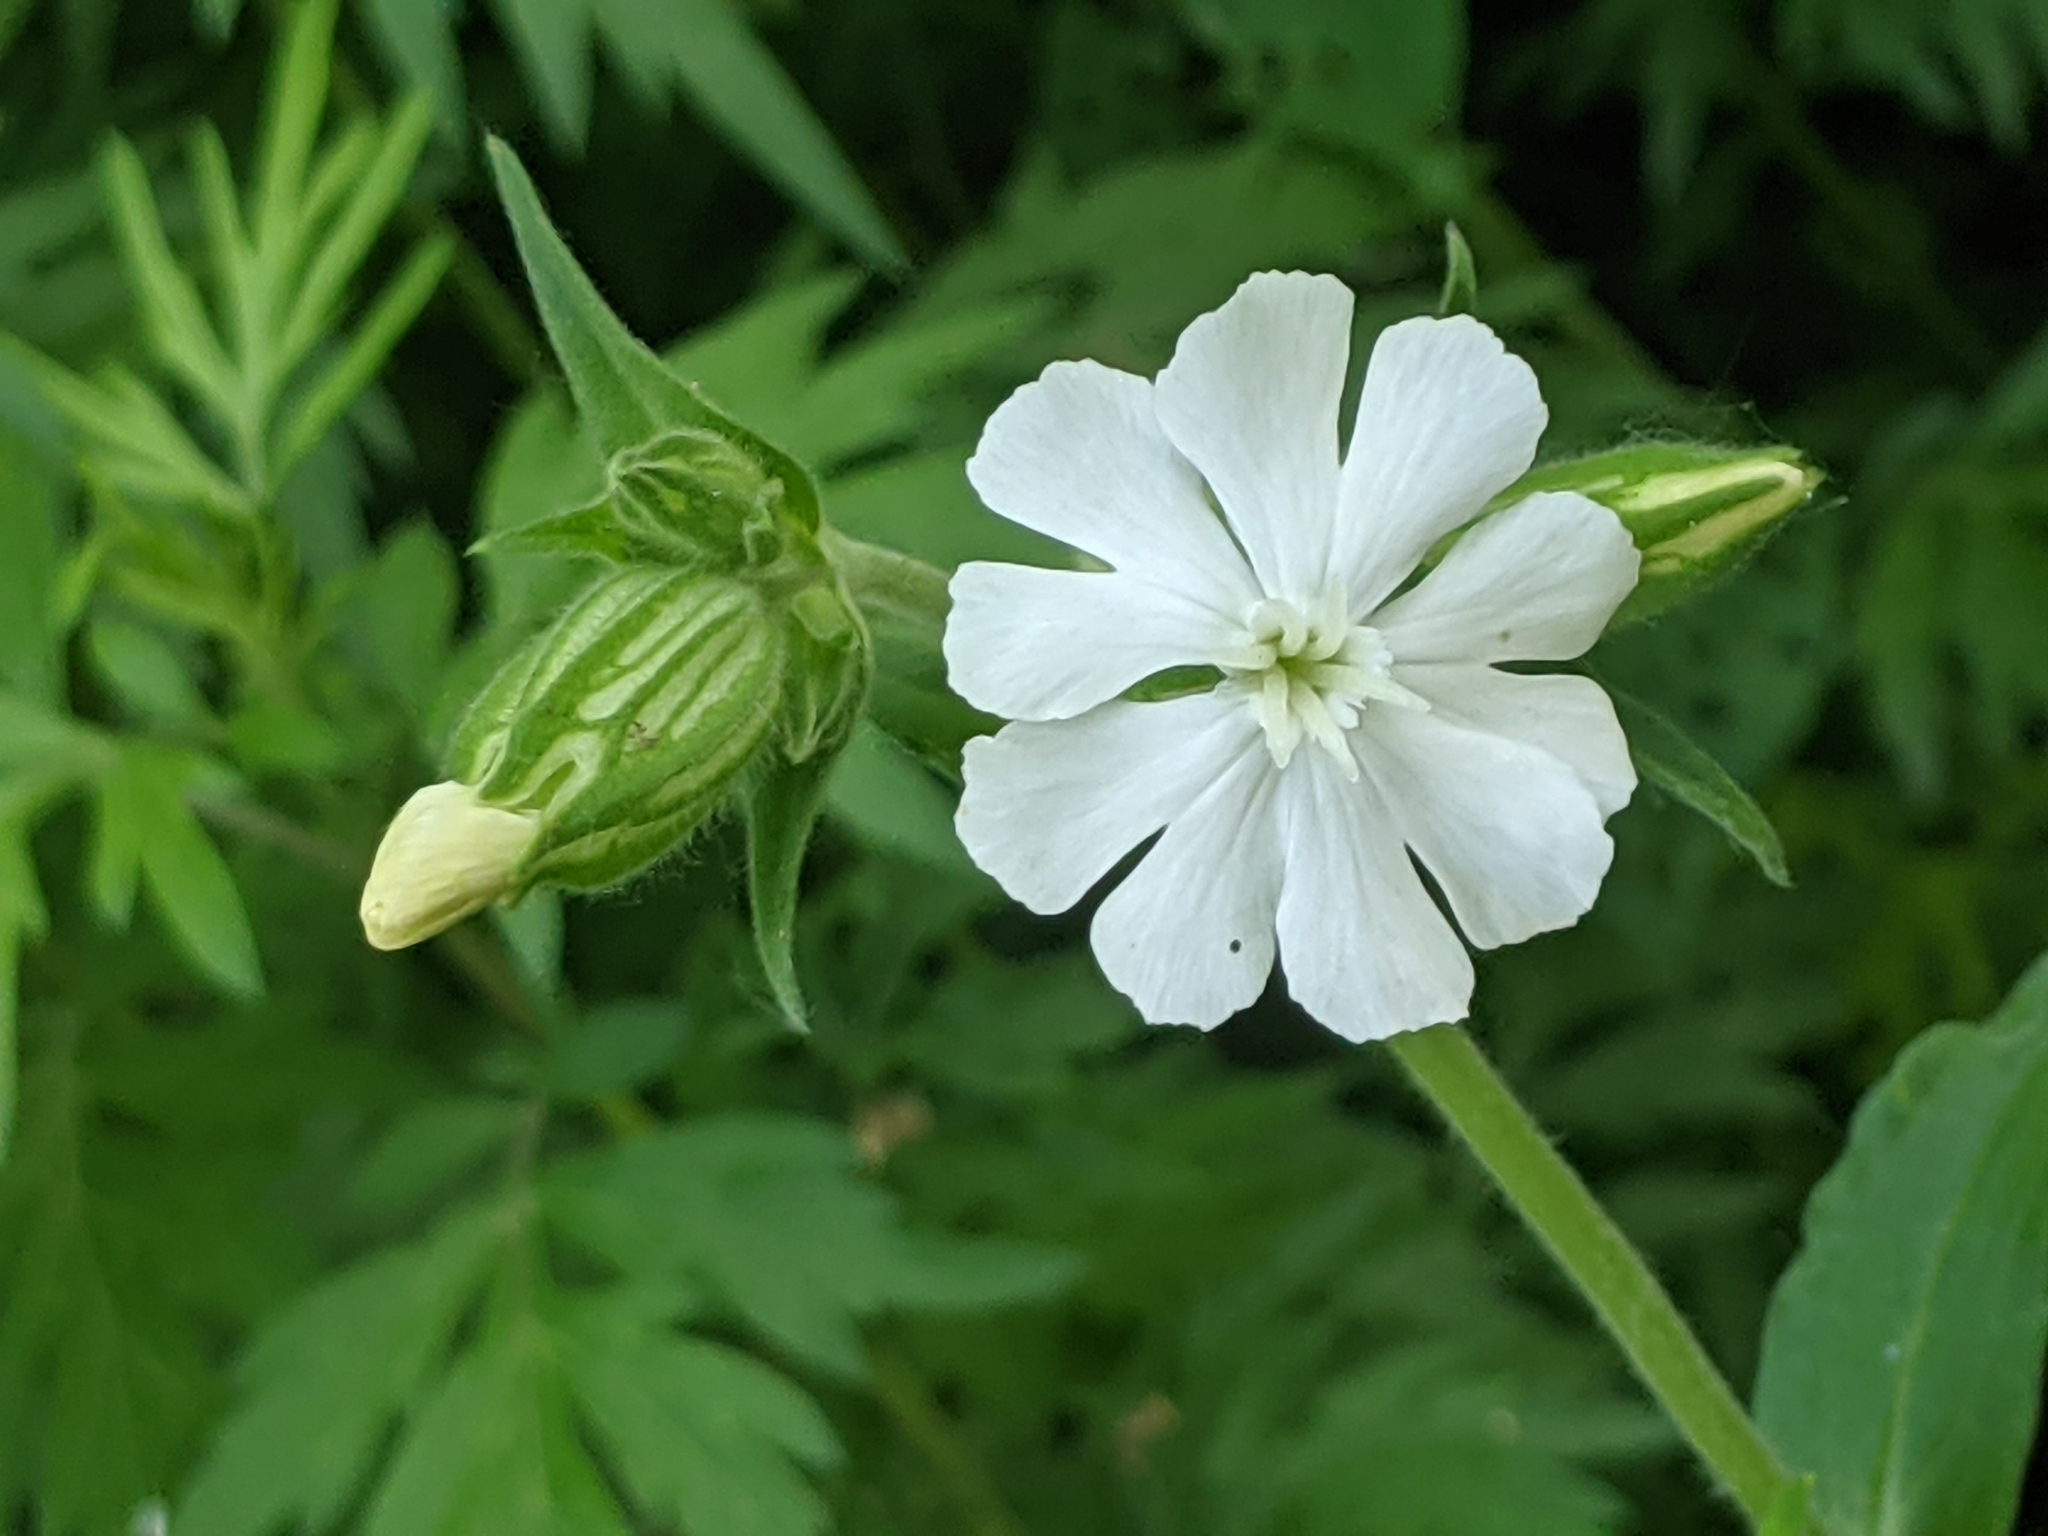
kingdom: Plantae
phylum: Tracheophyta
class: Magnoliopsida
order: Caryophyllales
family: Caryophyllaceae
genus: Silene
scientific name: Silene latifolia
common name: White campion
